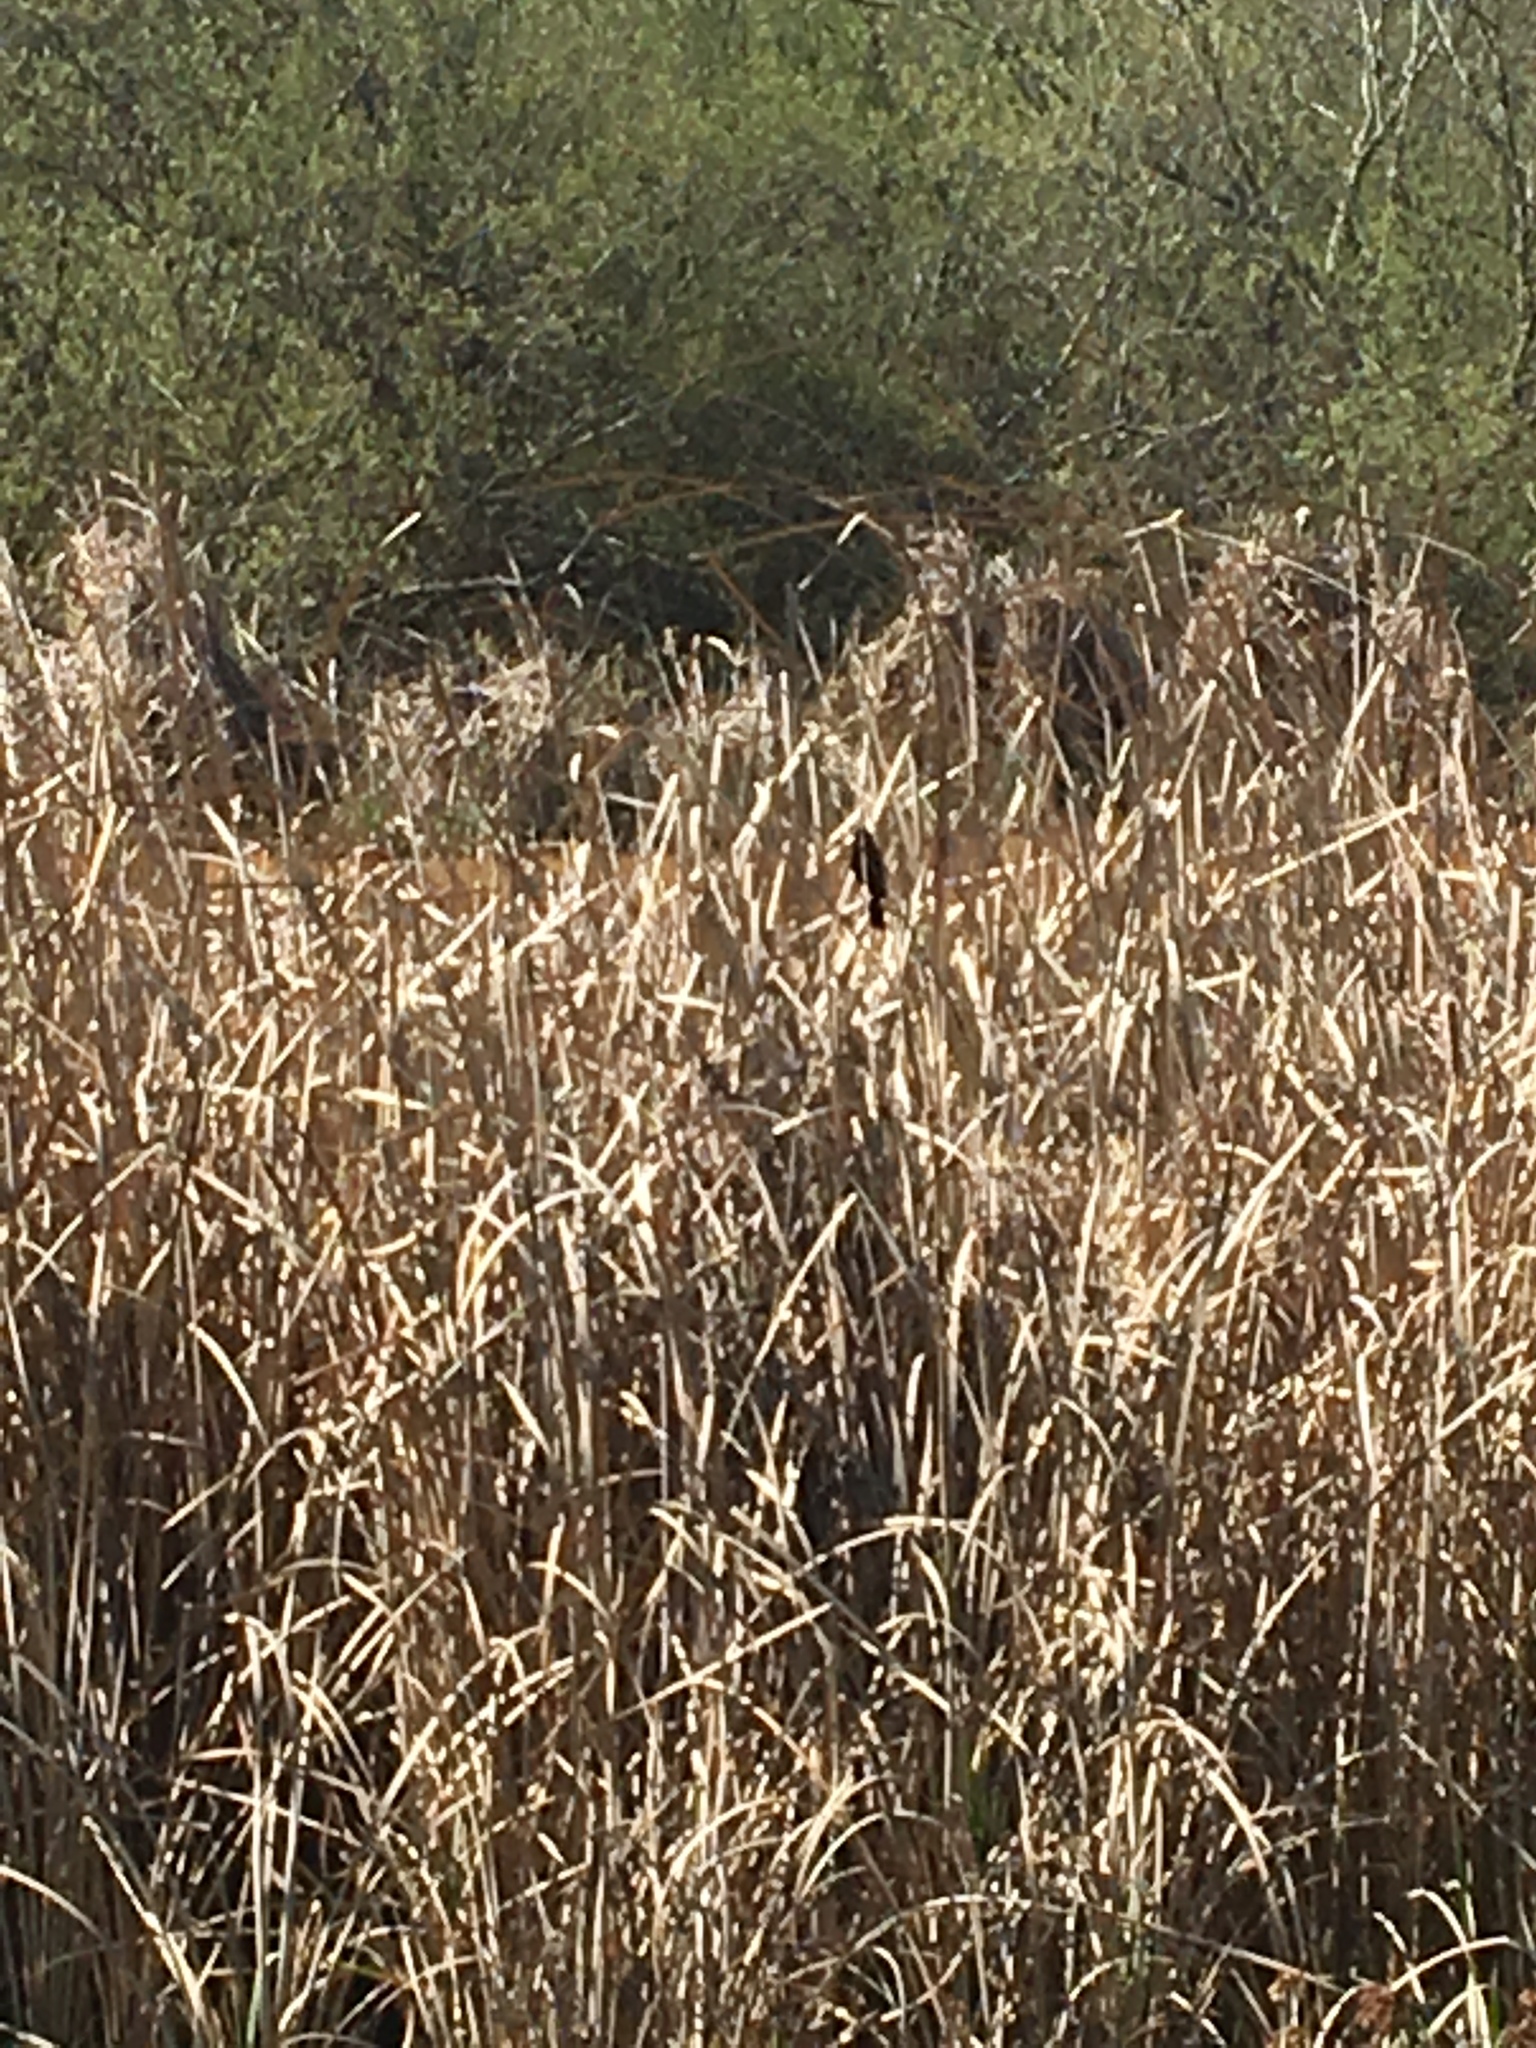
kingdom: Animalia
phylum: Chordata
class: Aves
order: Passeriformes
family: Icteridae
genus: Agelaius
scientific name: Agelaius phoeniceus
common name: Red-winged blackbird
